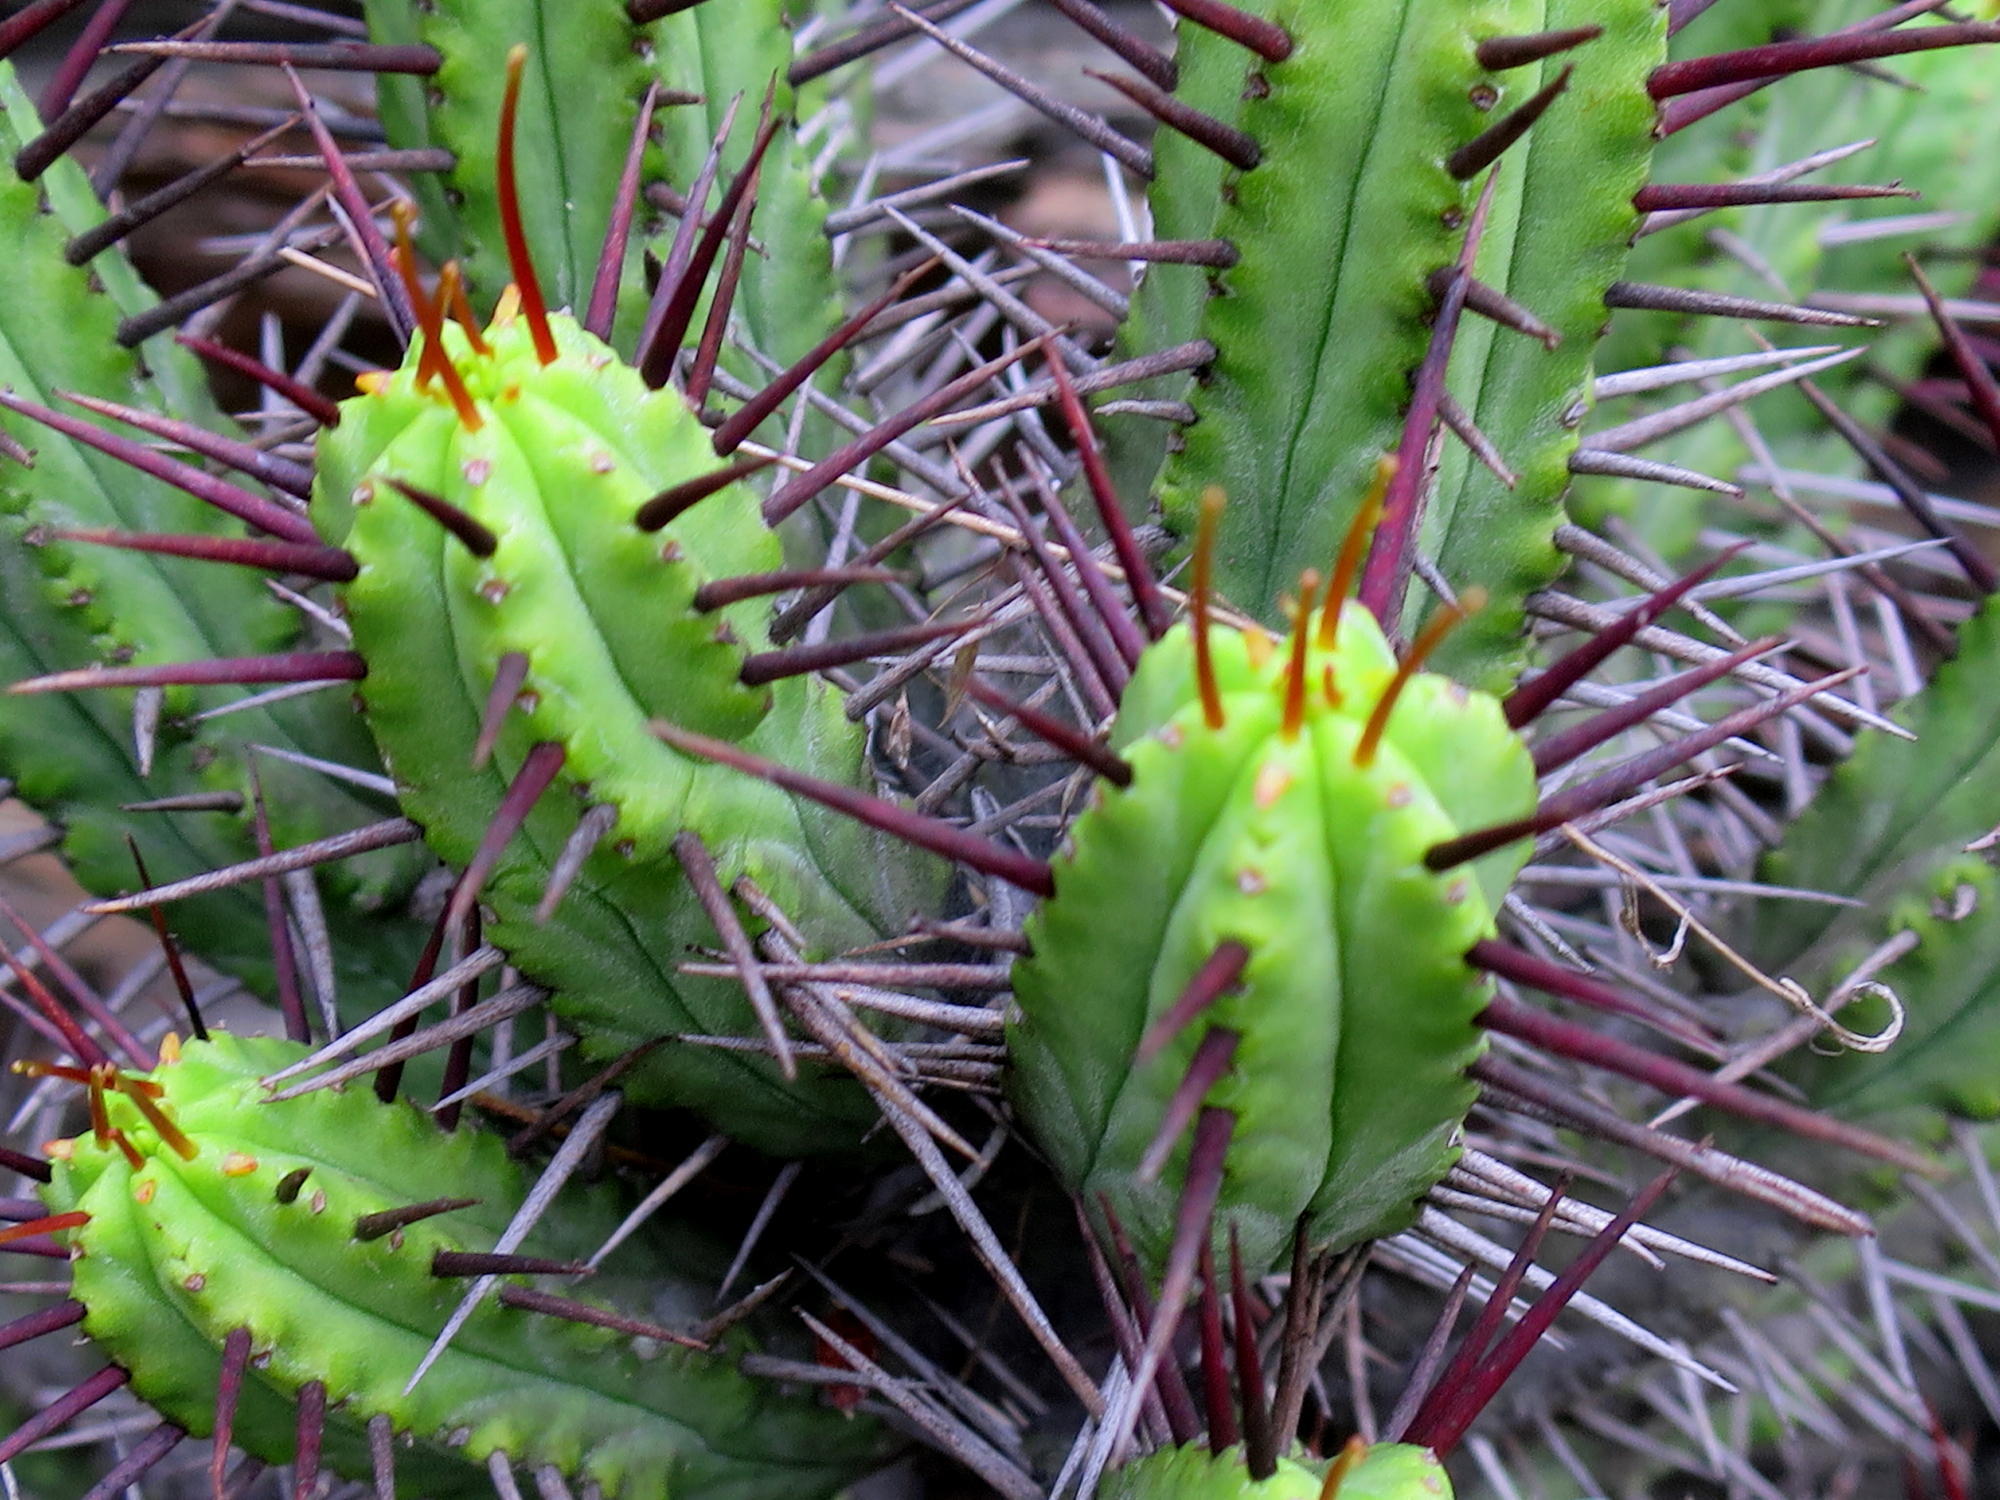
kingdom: Plantae
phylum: Tracheophyta
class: Magnoliopsida
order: Malpighiales
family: Euphorbiaceae
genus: Euphorbia
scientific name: Euphorbia heptagona
